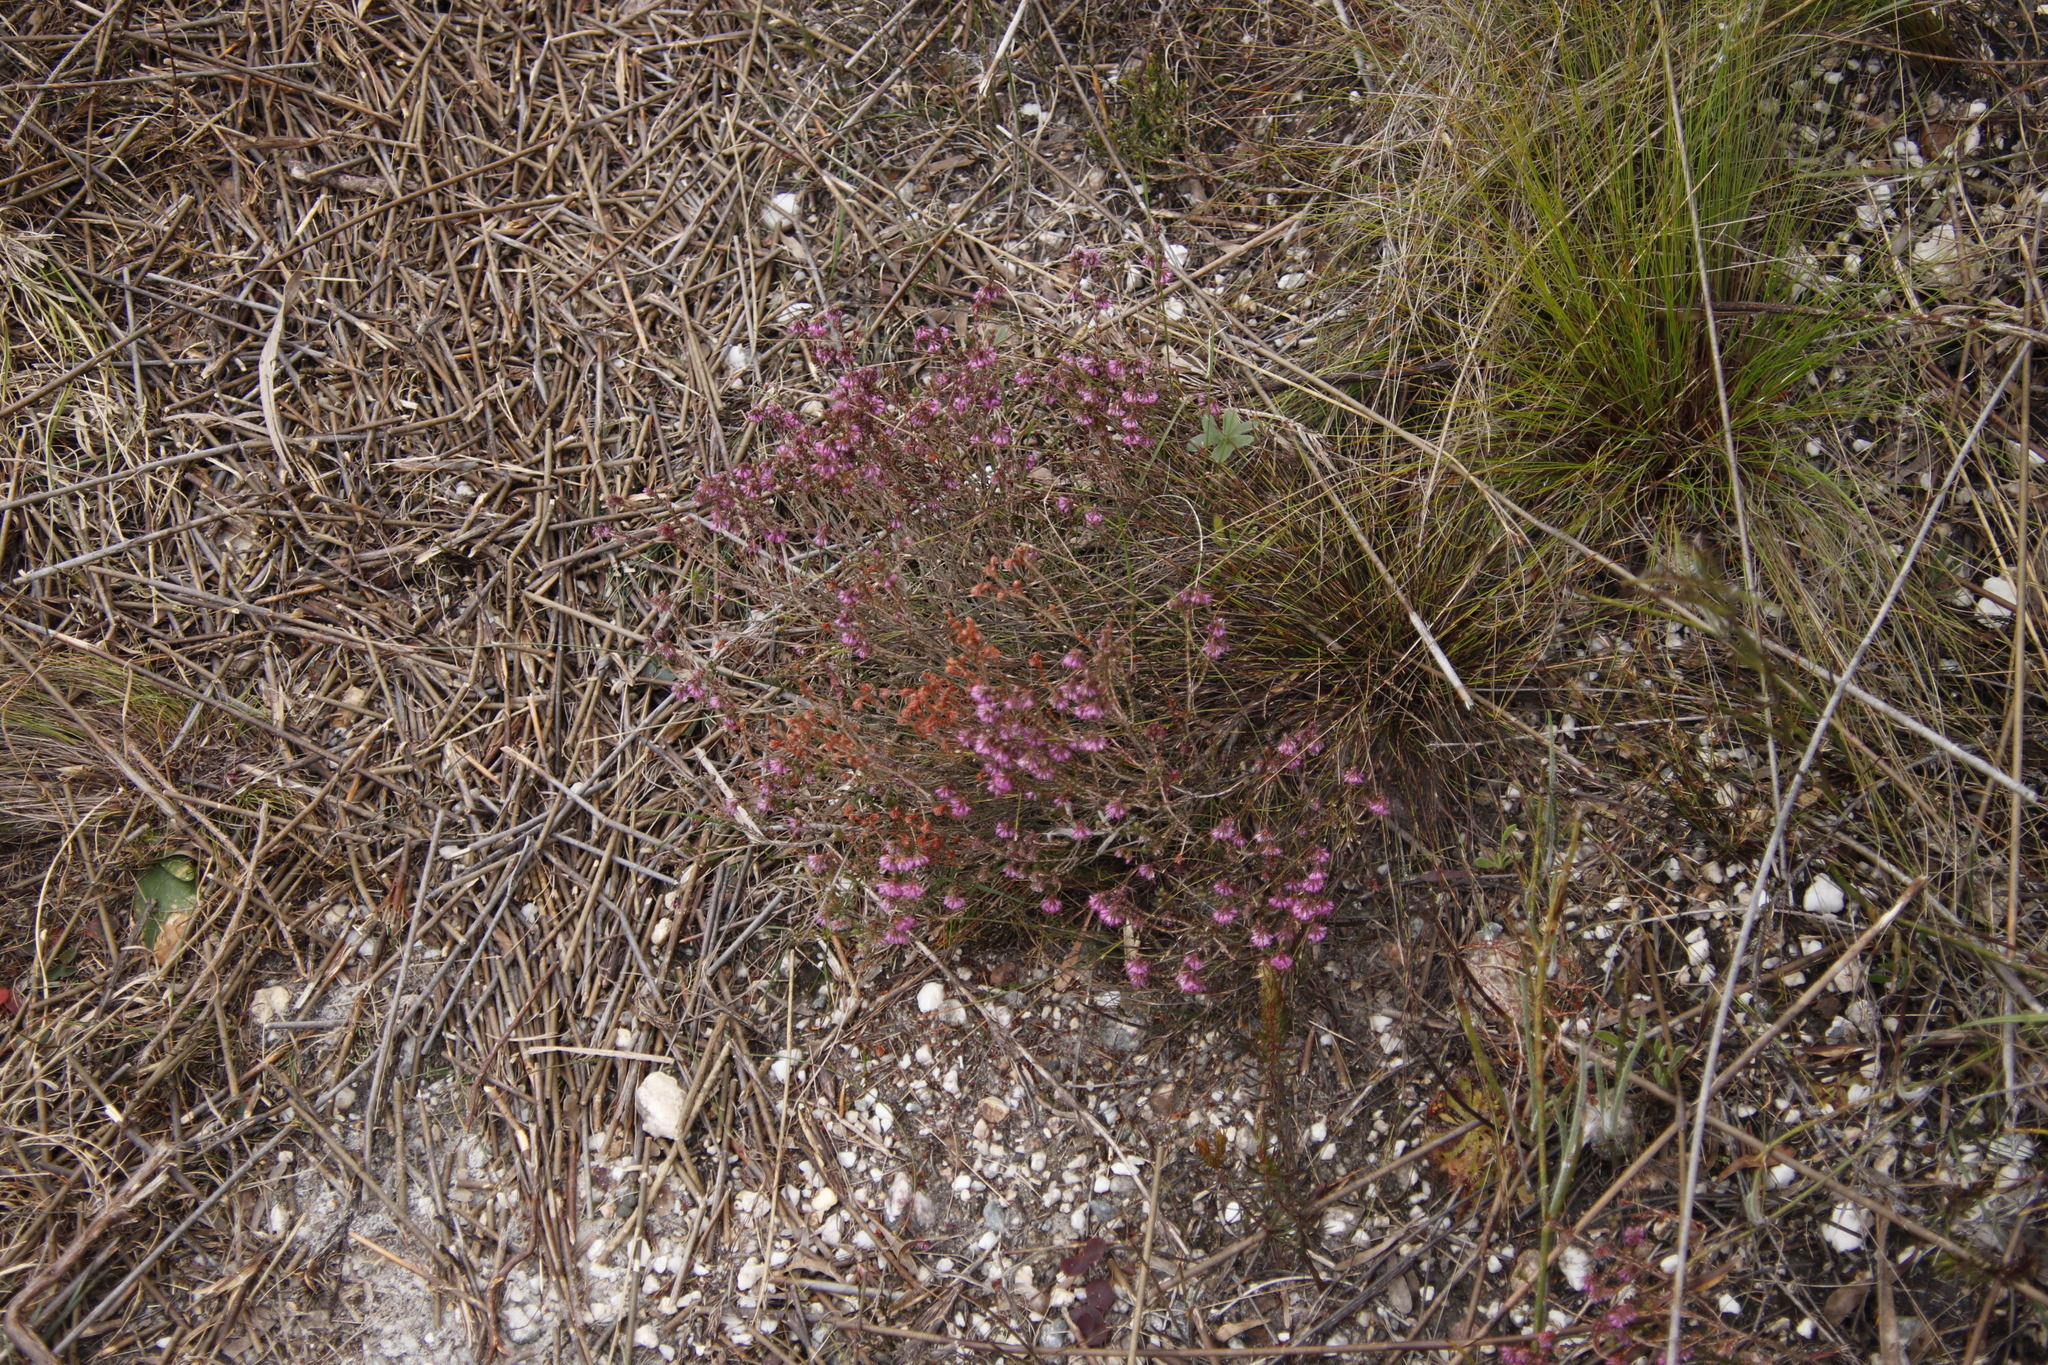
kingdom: Plantae
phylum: Tracheophyta
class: Magnoliopsida
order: Ericales
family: Ericaceae
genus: Erica
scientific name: Erica globiceps
